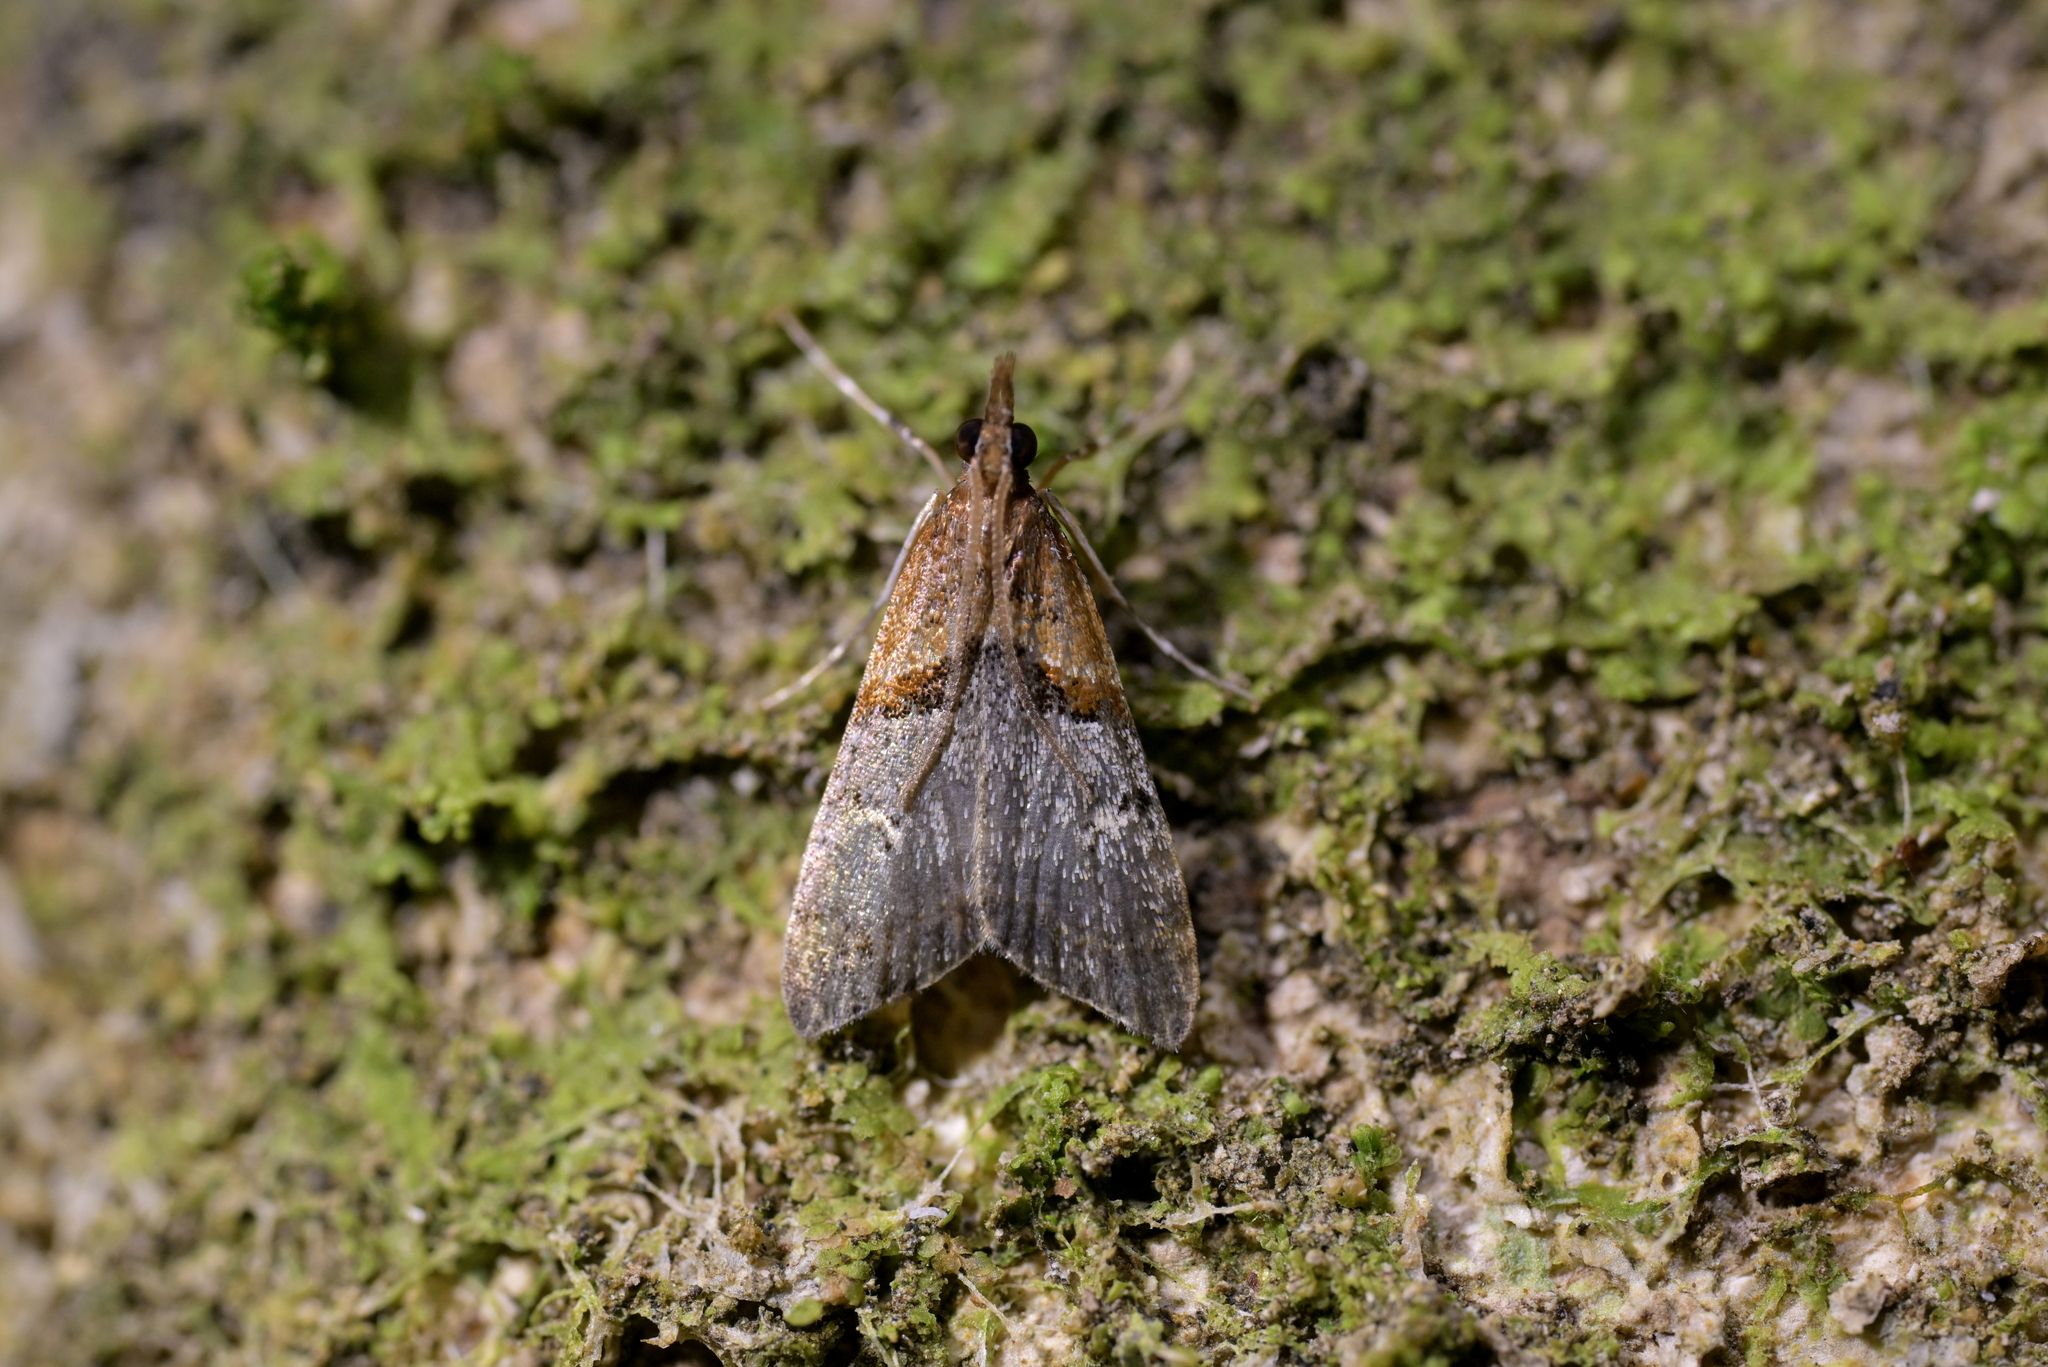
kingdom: Animalia
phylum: Arthropoda
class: Insecta
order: Lepidoptera
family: Crambidae
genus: Antiscopa
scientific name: Antiscopa epicomia
